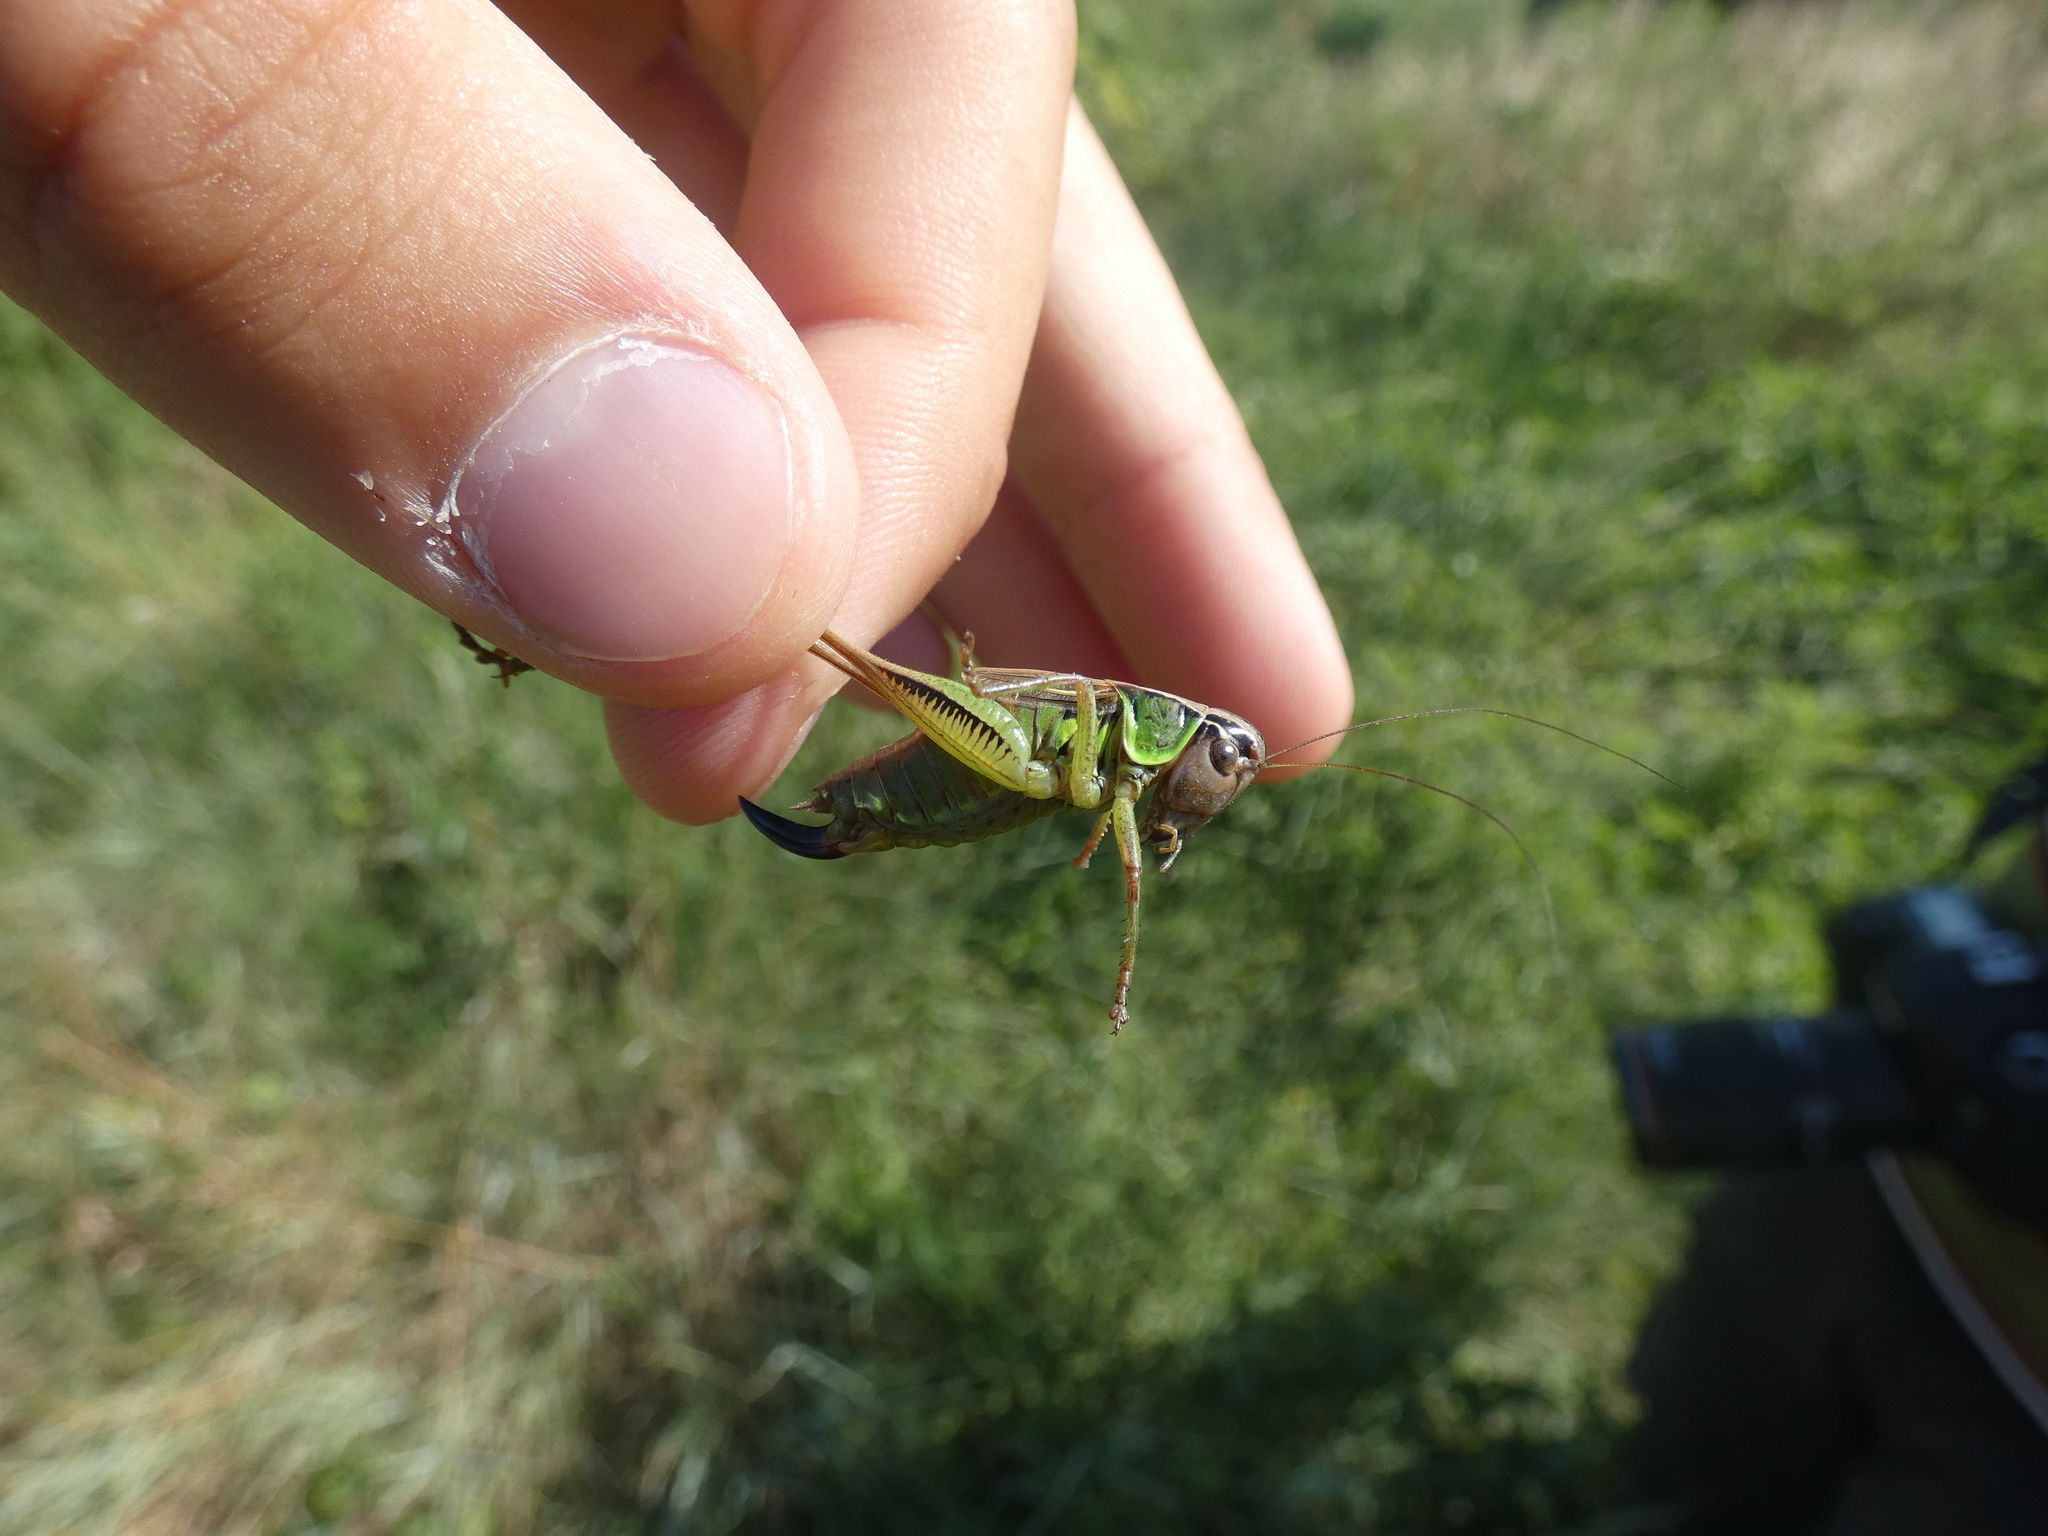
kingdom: Animalia
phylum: Arthropoda
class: Insecta
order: Orthoptera
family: Tettigoniidae
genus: Roeseliana
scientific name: Roeseliana azami
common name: French meadow bush-cricket
